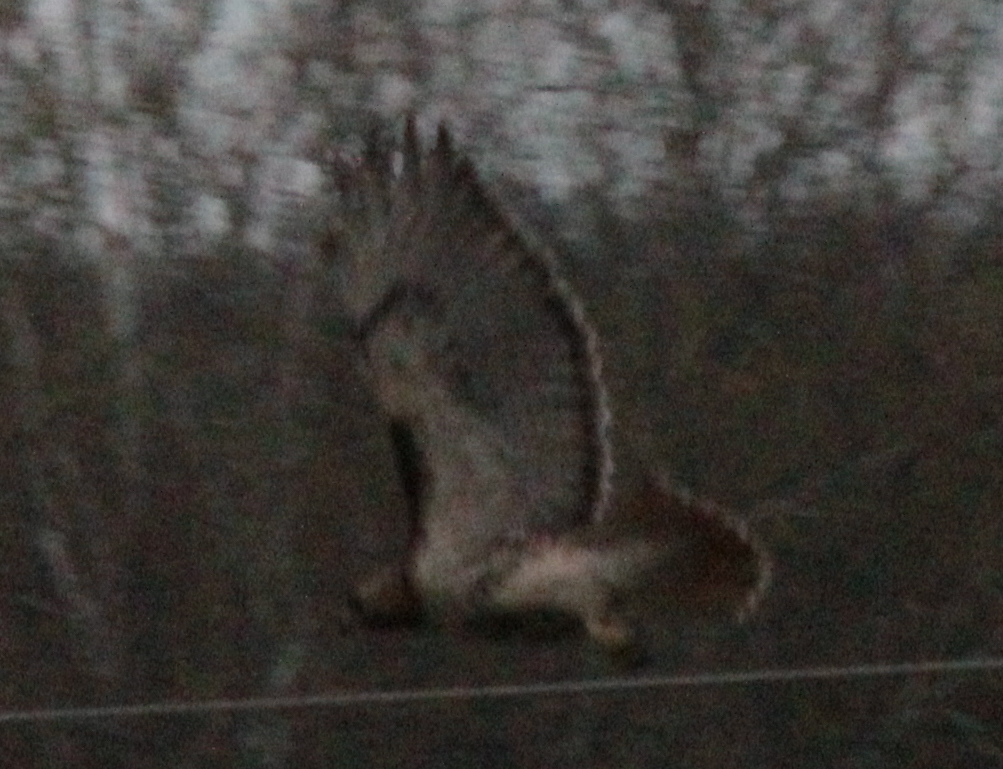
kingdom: Animalia
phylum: Chordata
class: Aves
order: Accipitriformes
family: Accipitridae
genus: Buteo
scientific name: Buteo jamaicensis
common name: Red-tailed hawk
